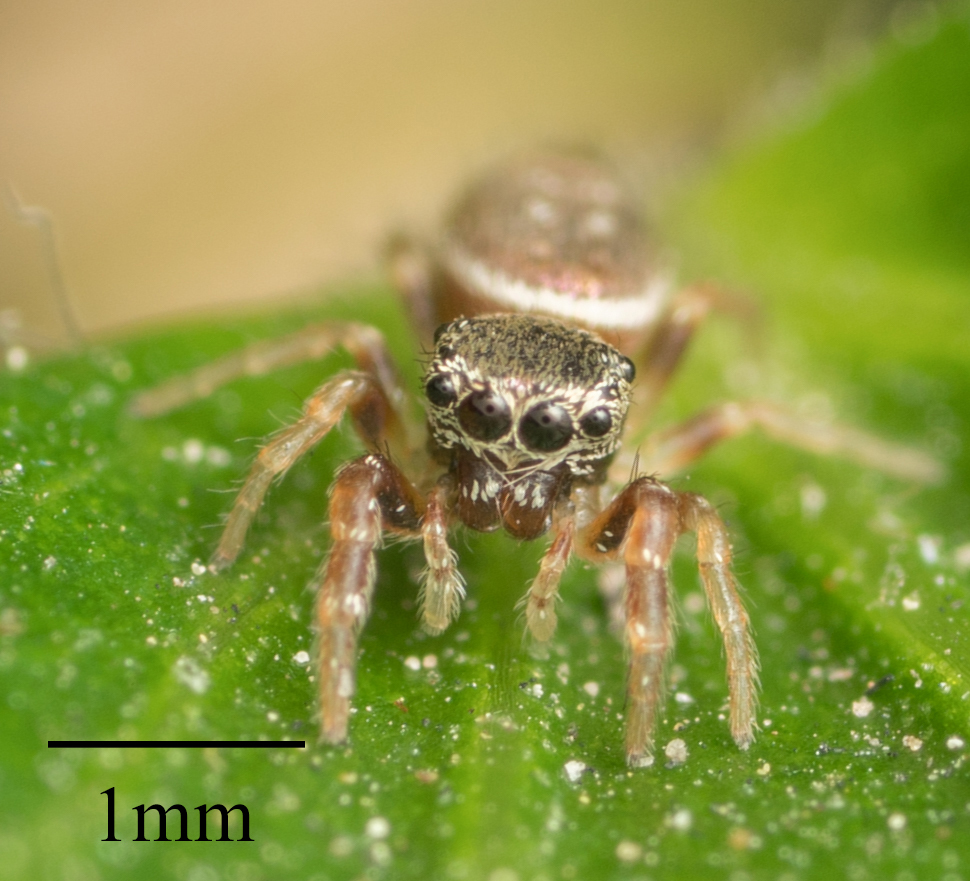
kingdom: Animalia
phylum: Arthropoda
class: Arachnida
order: Araneae
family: Salticidae
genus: Sassacus
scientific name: Sassacus vitis
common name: Jumping spiders
